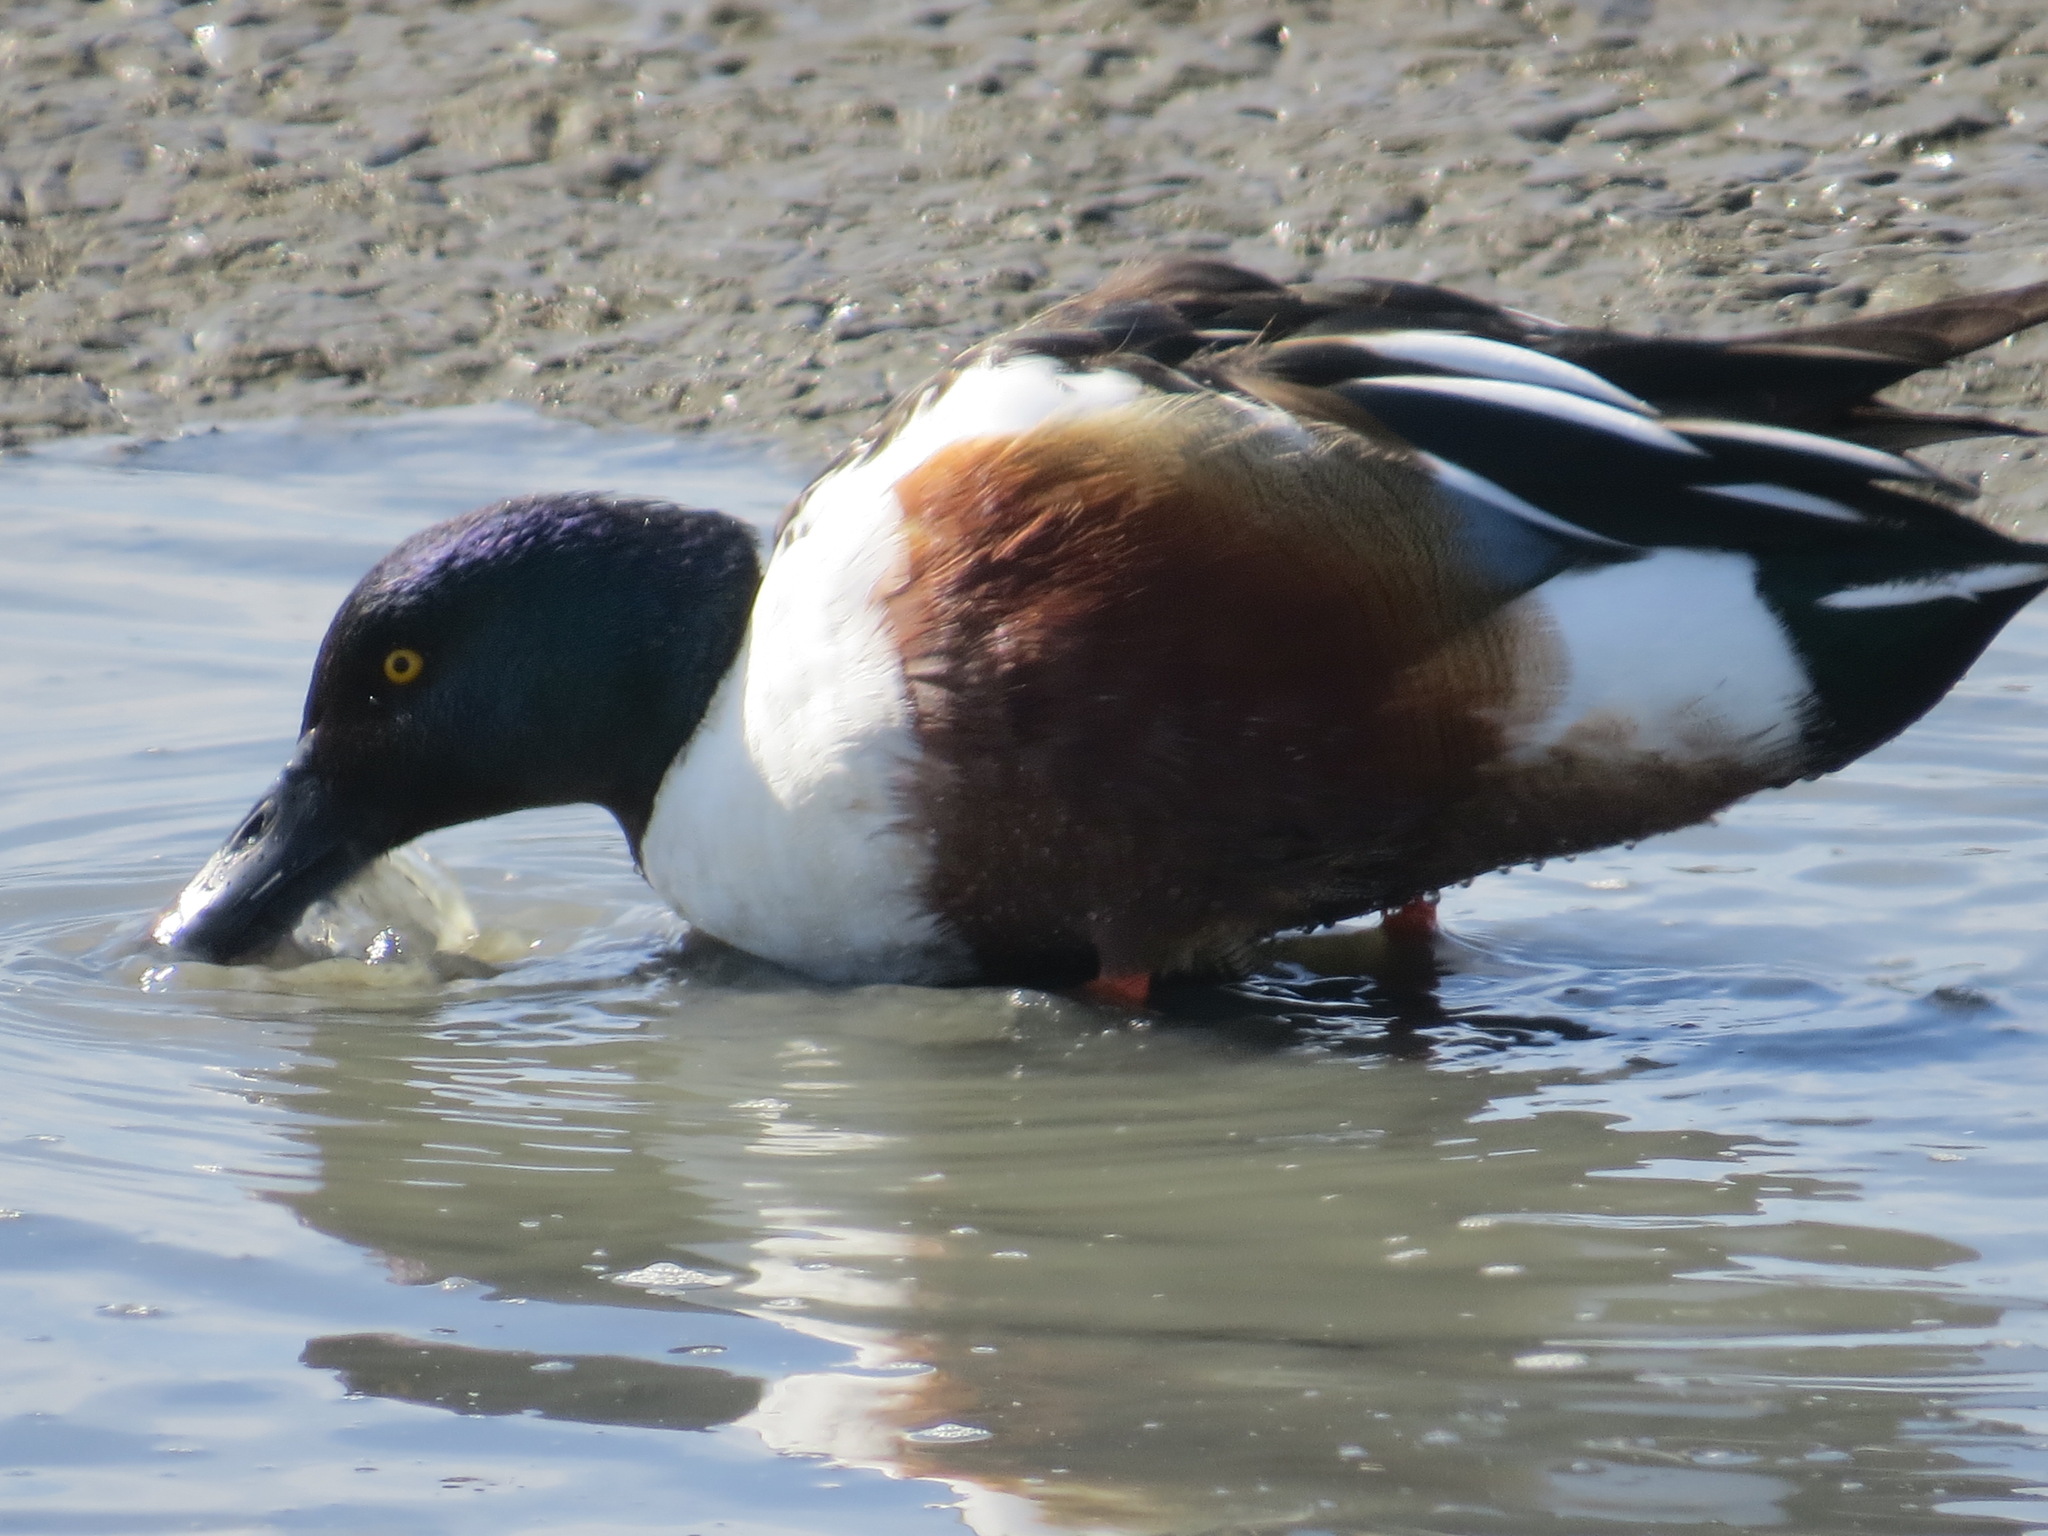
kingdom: Animalia
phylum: Chordata
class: Aves
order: Anseriformes
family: Anatidae
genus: Spatula
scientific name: Spatula clypeata
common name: Northern shoveler
